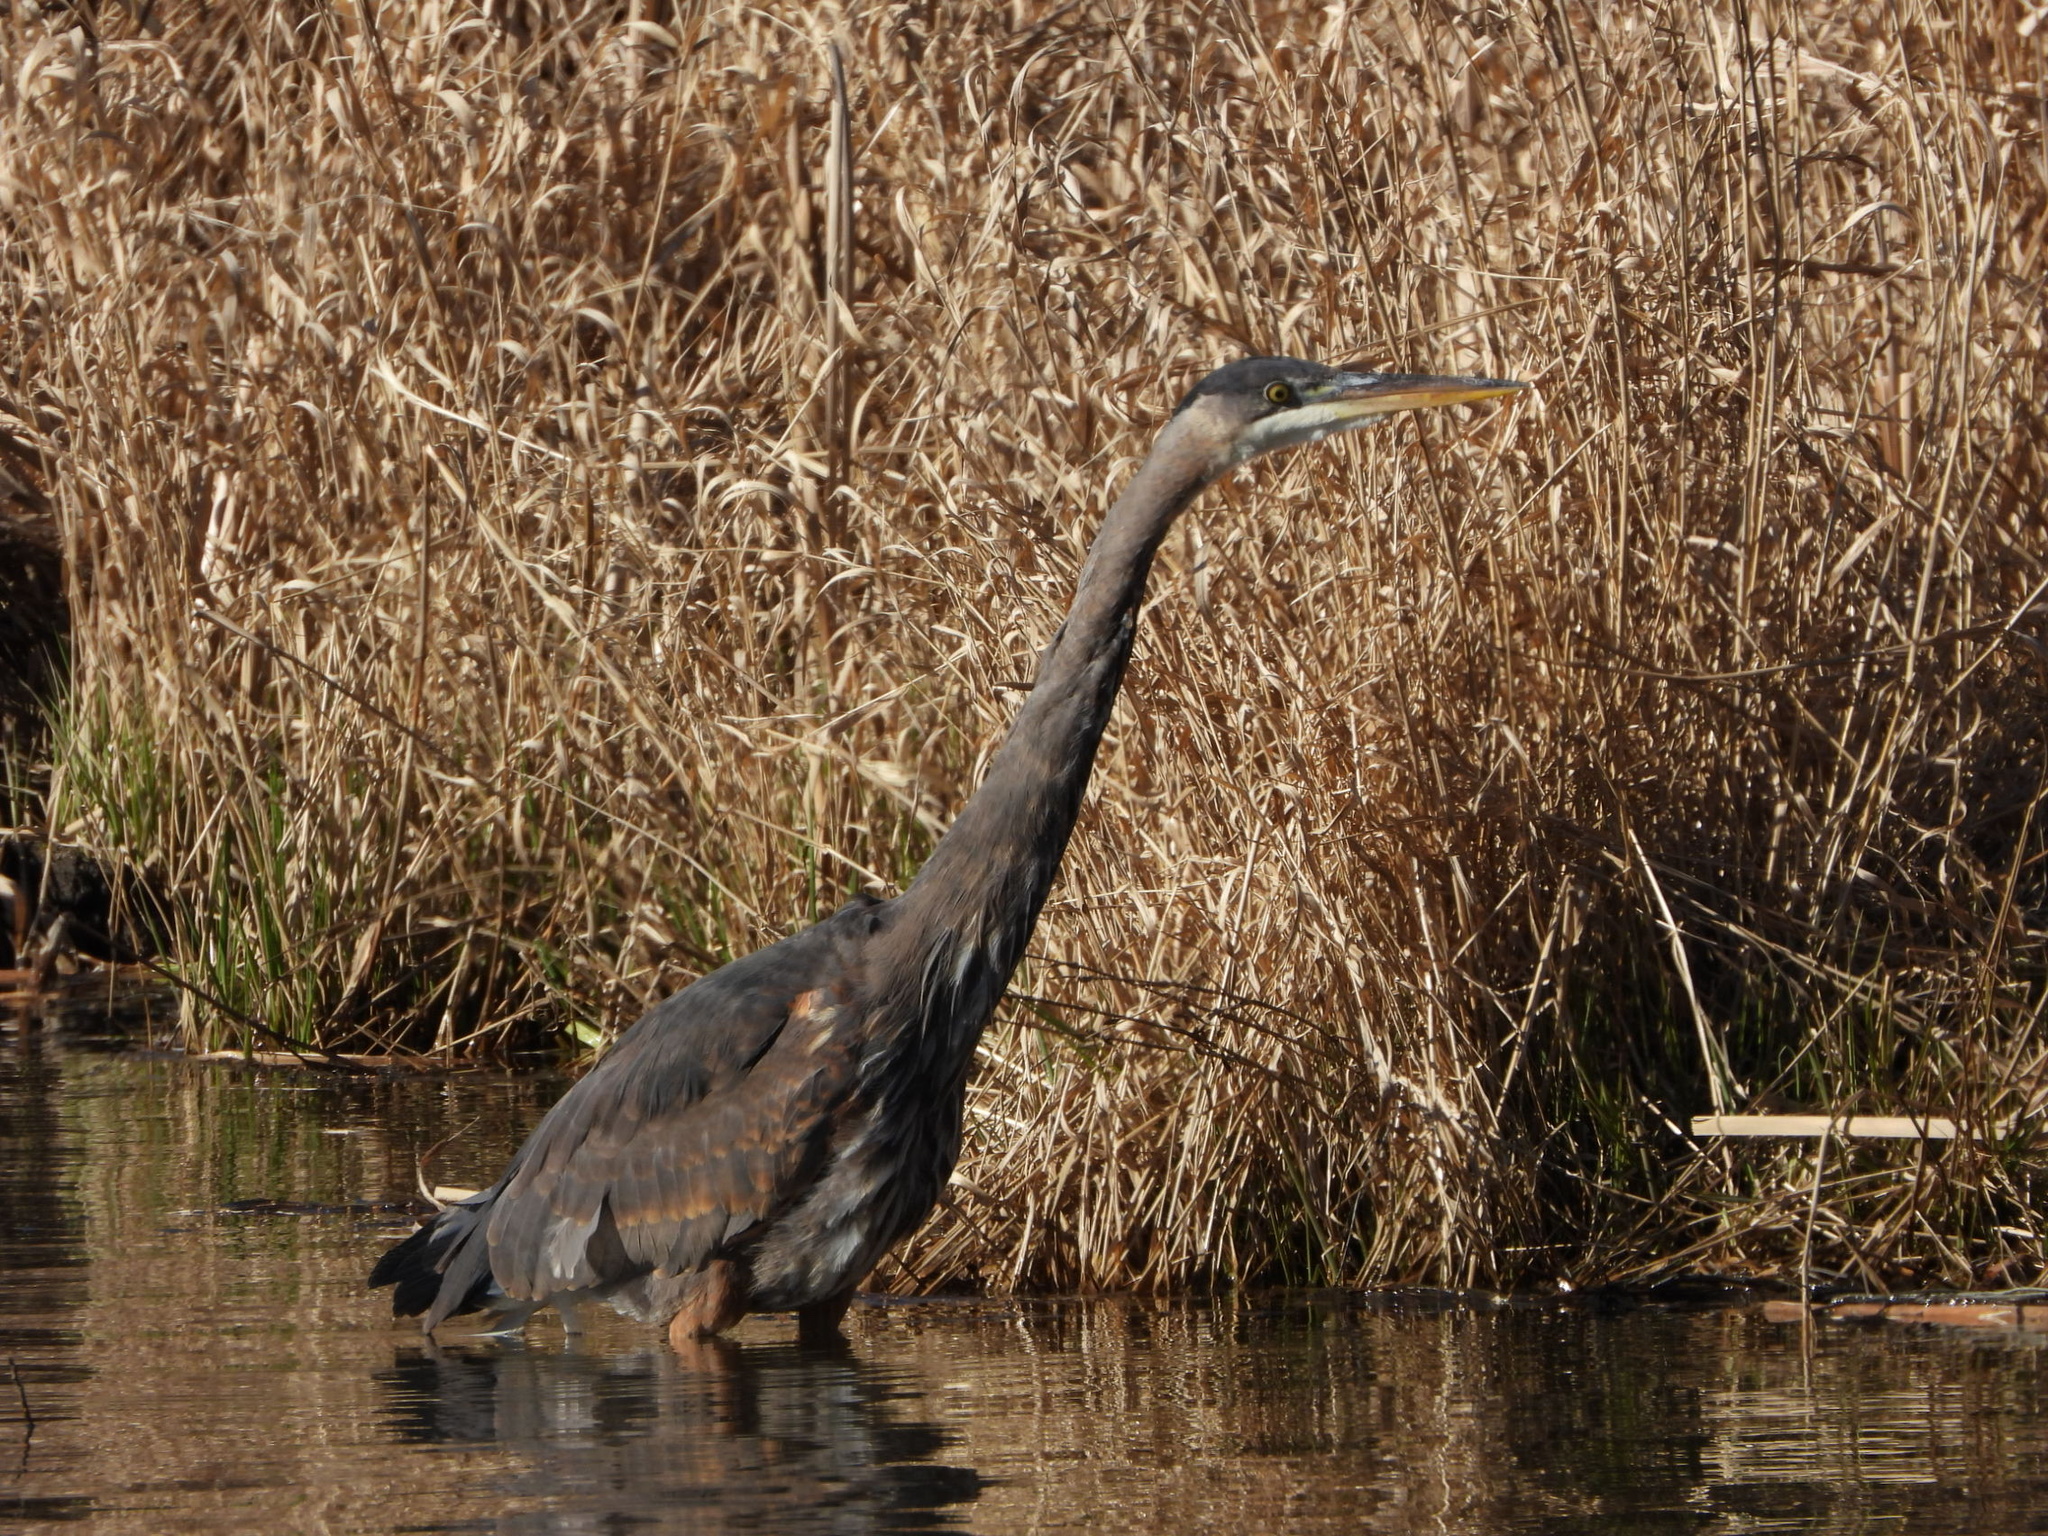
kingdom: Animalia
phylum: Chordata
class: Aves
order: Pelecaniformes
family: Ardeidae
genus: Ardea
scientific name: Ardea herodias
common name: Great blue heron
